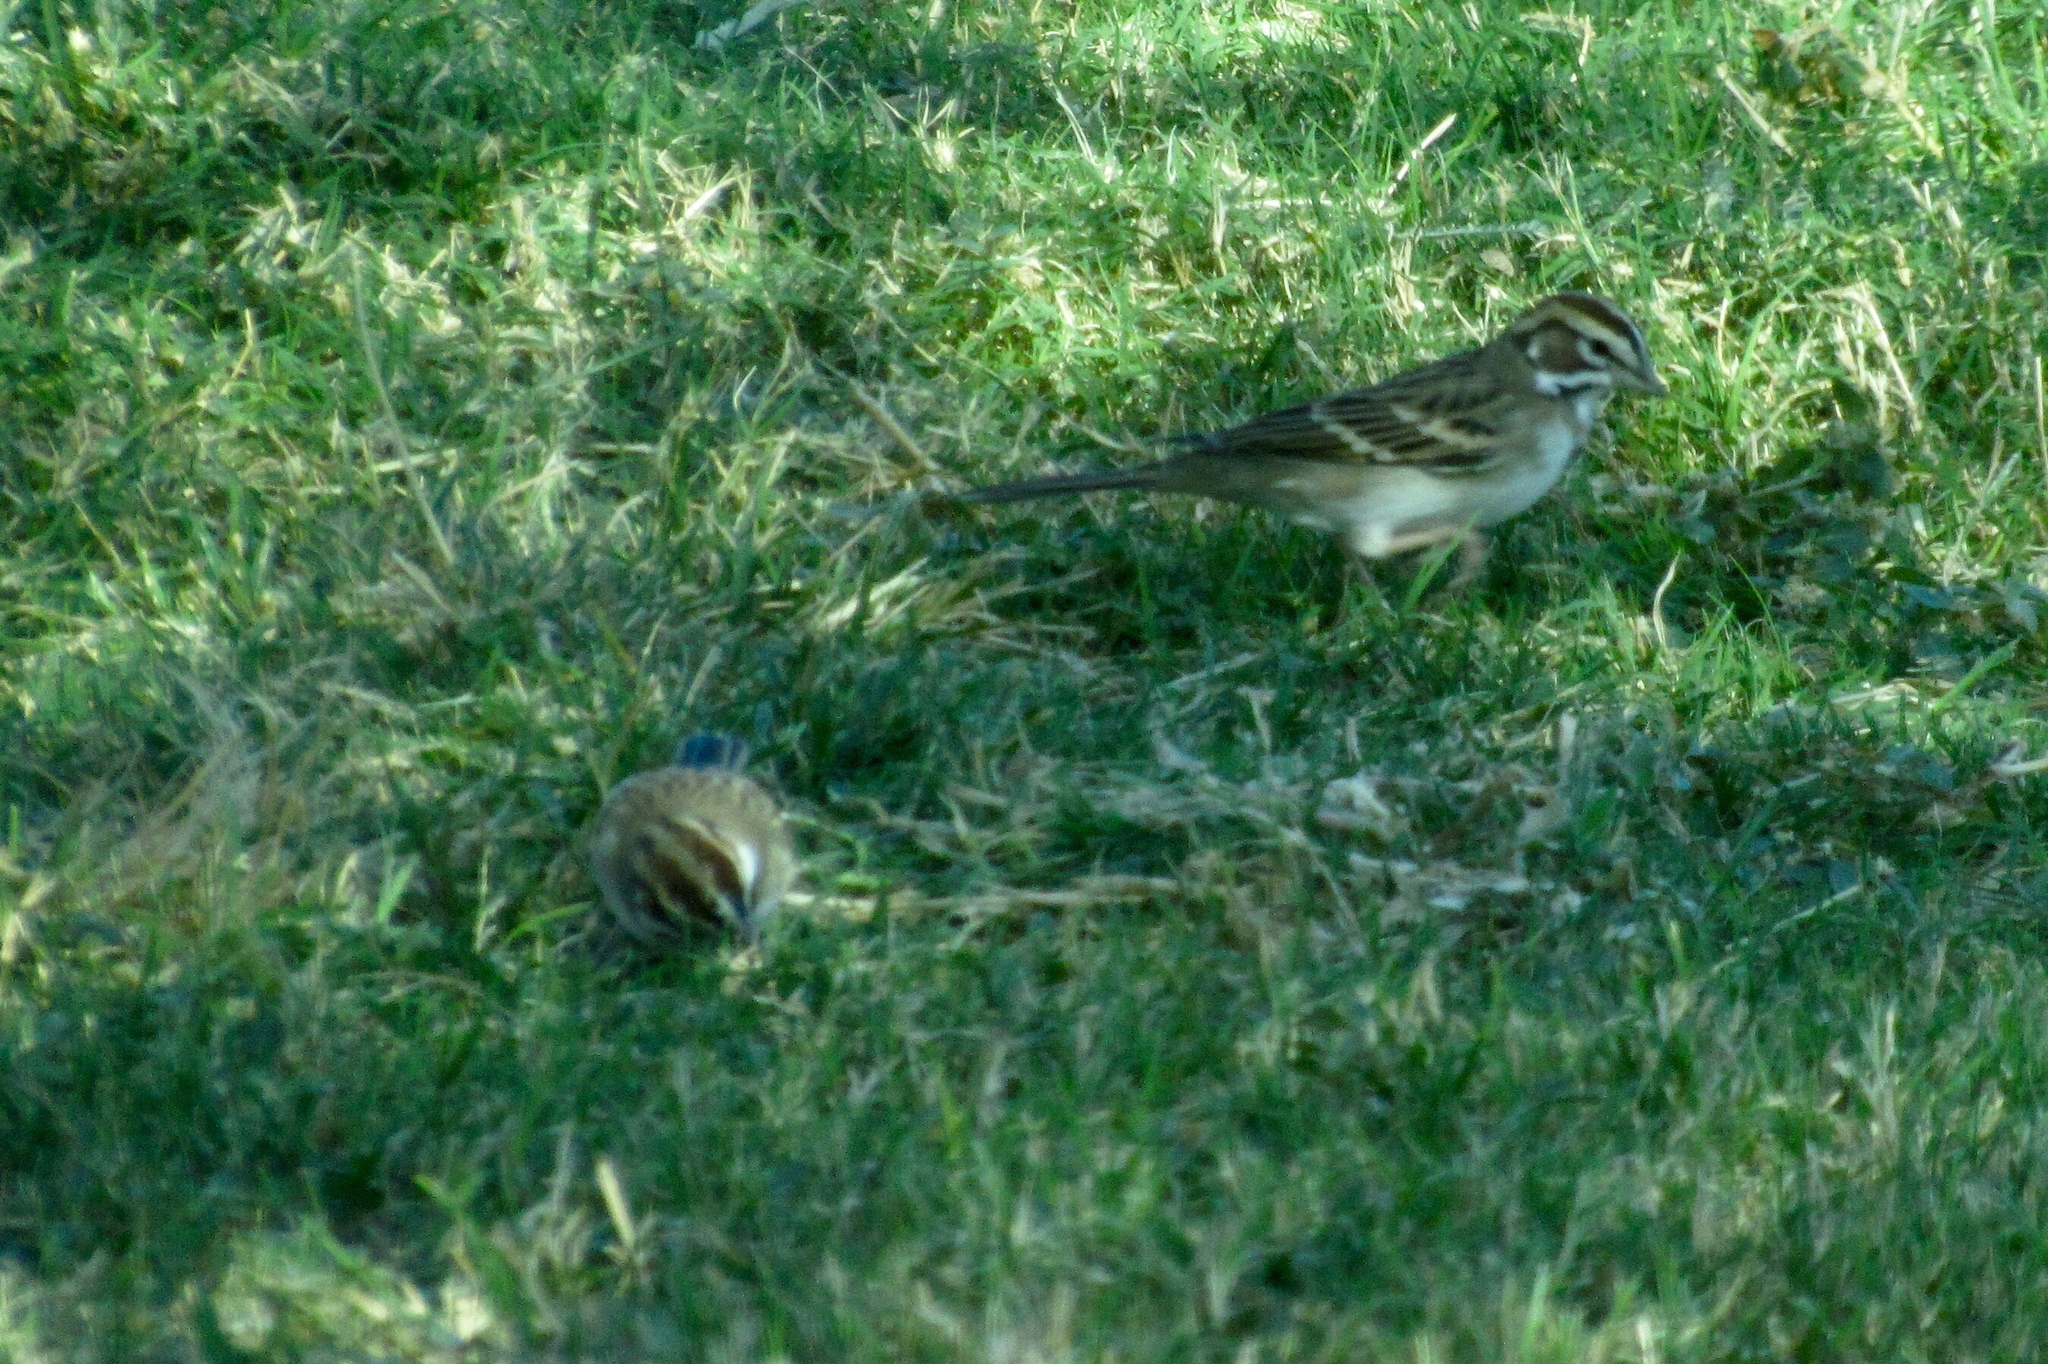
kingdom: Animalia
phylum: Chordata
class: Aves
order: Passeriformes
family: Passerellidae
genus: Chondestes
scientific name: Chondestes grammacus
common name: Lark sparrow
